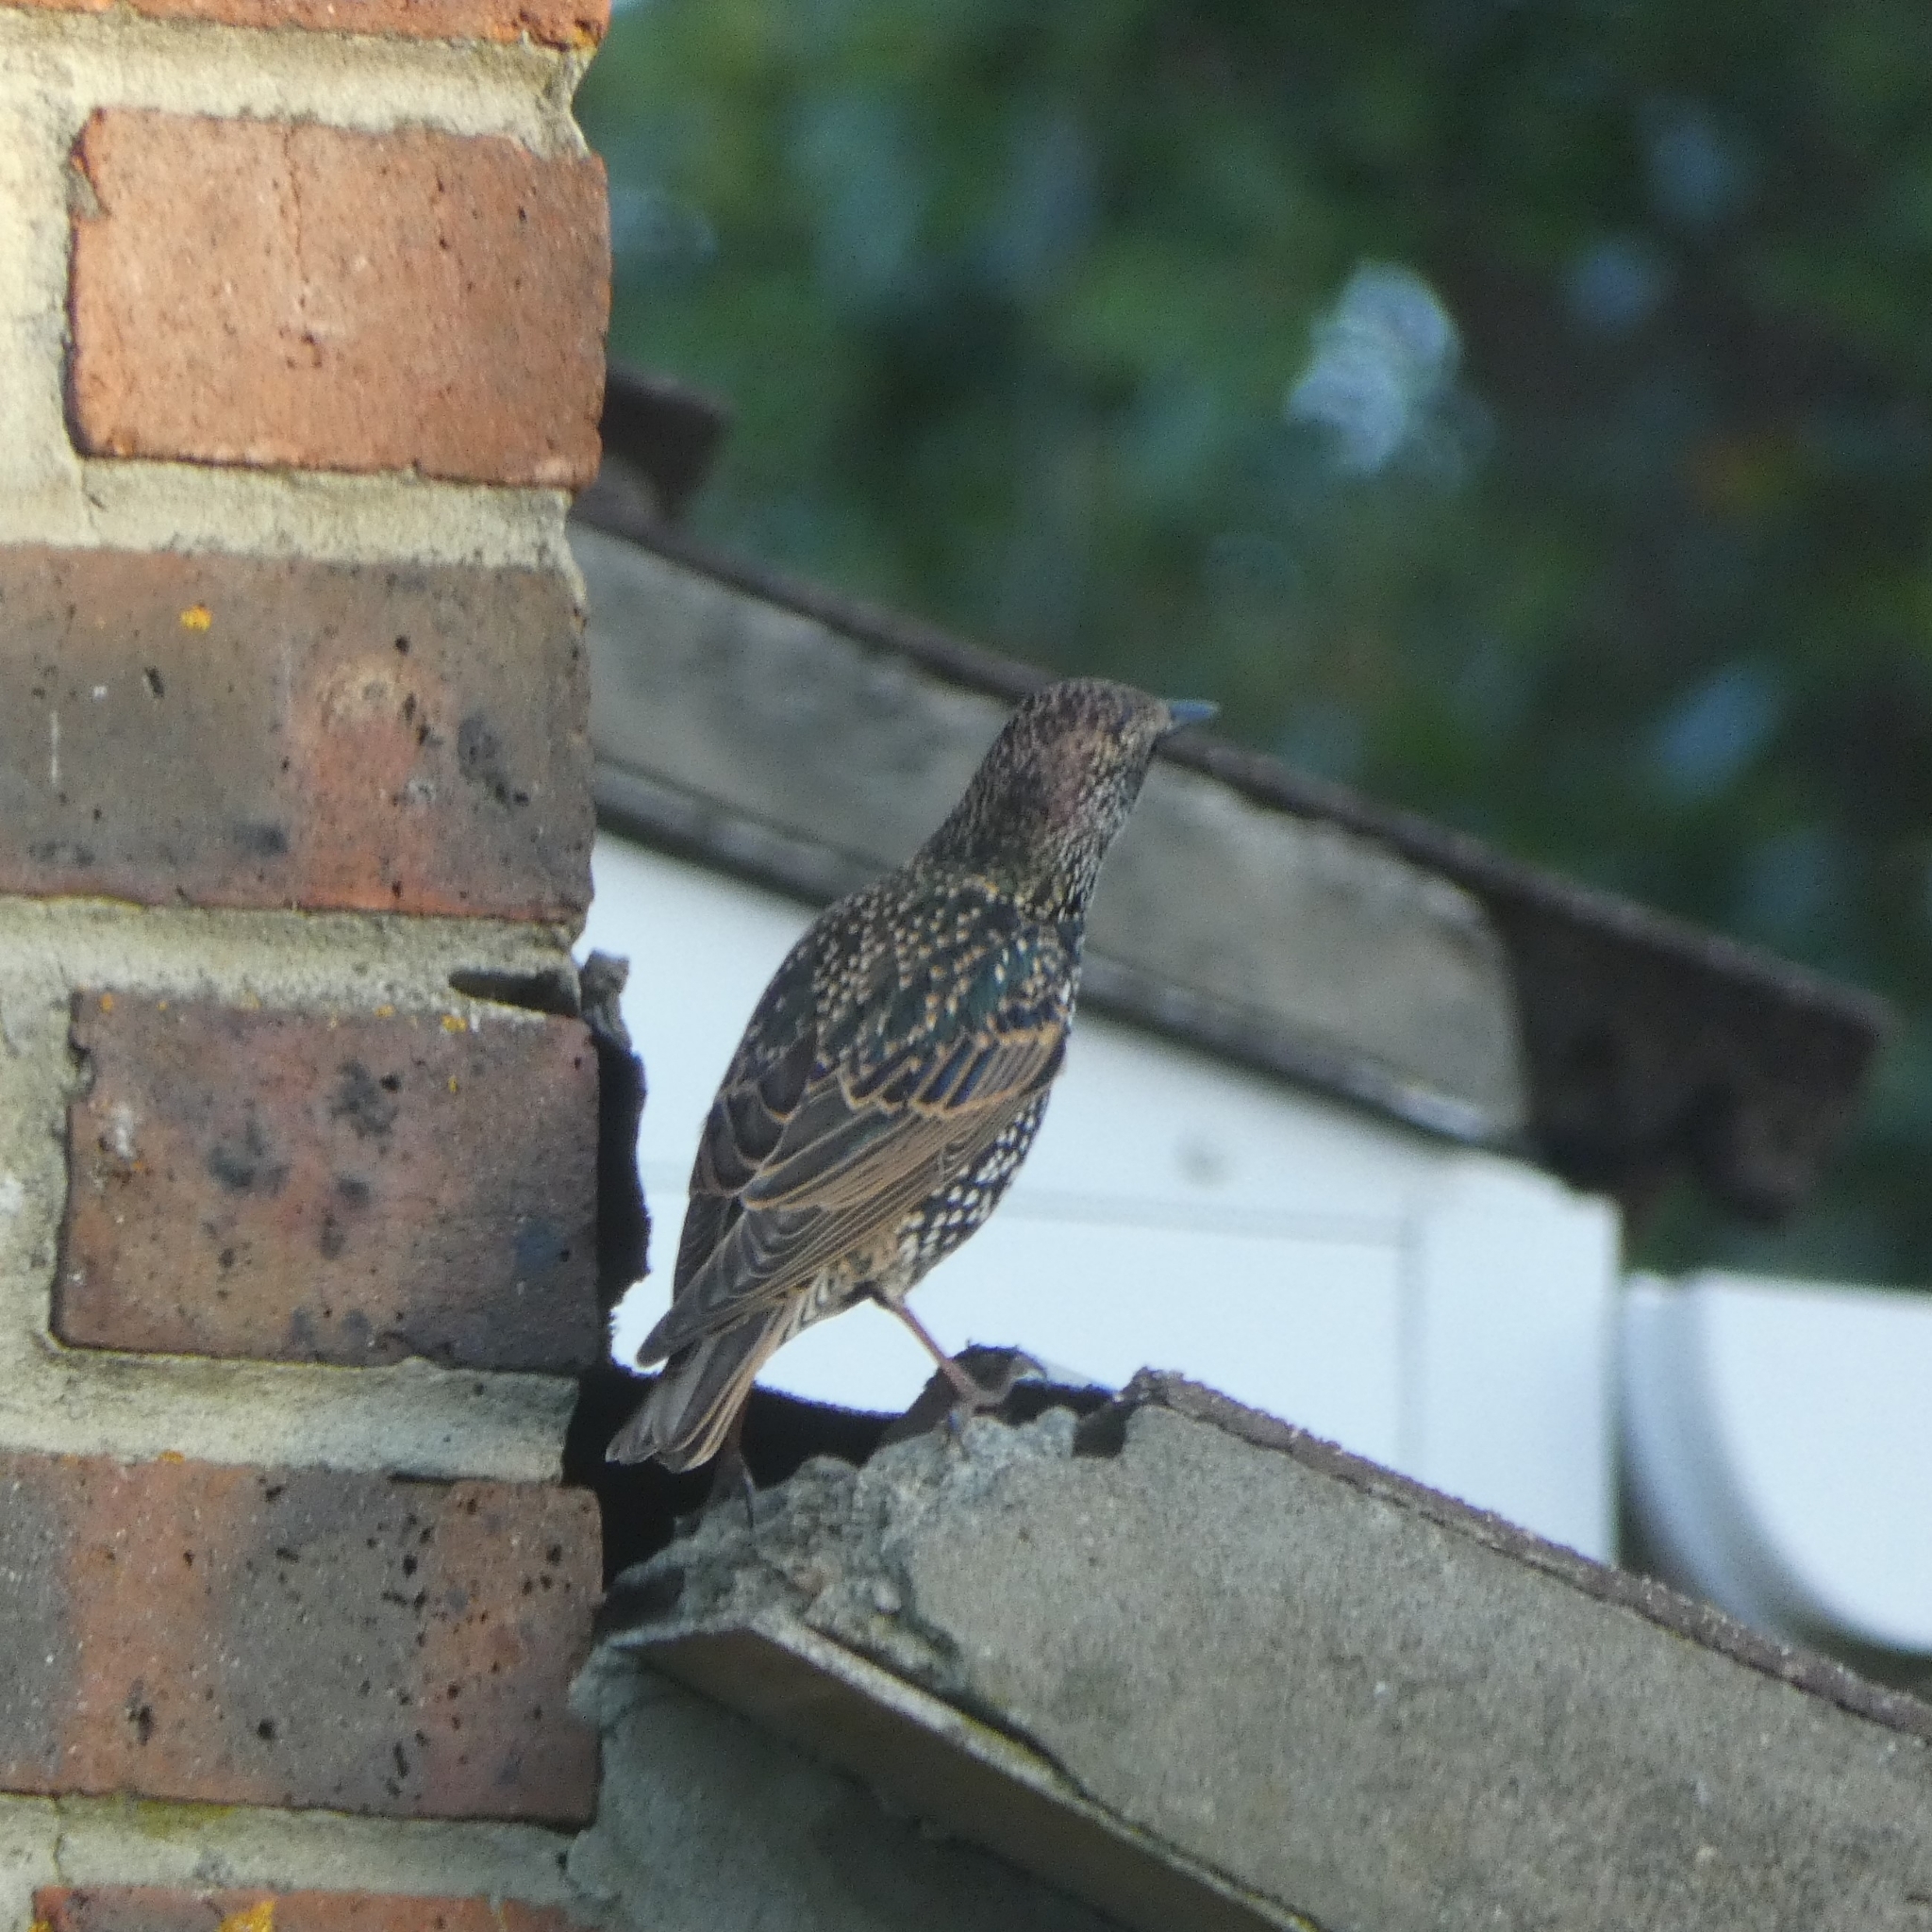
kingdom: Animalia
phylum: Chordata
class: Aves
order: Passeriformes
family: Sturnidae
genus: Sturnus
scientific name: Sturnus vulgaris
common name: Common starling
